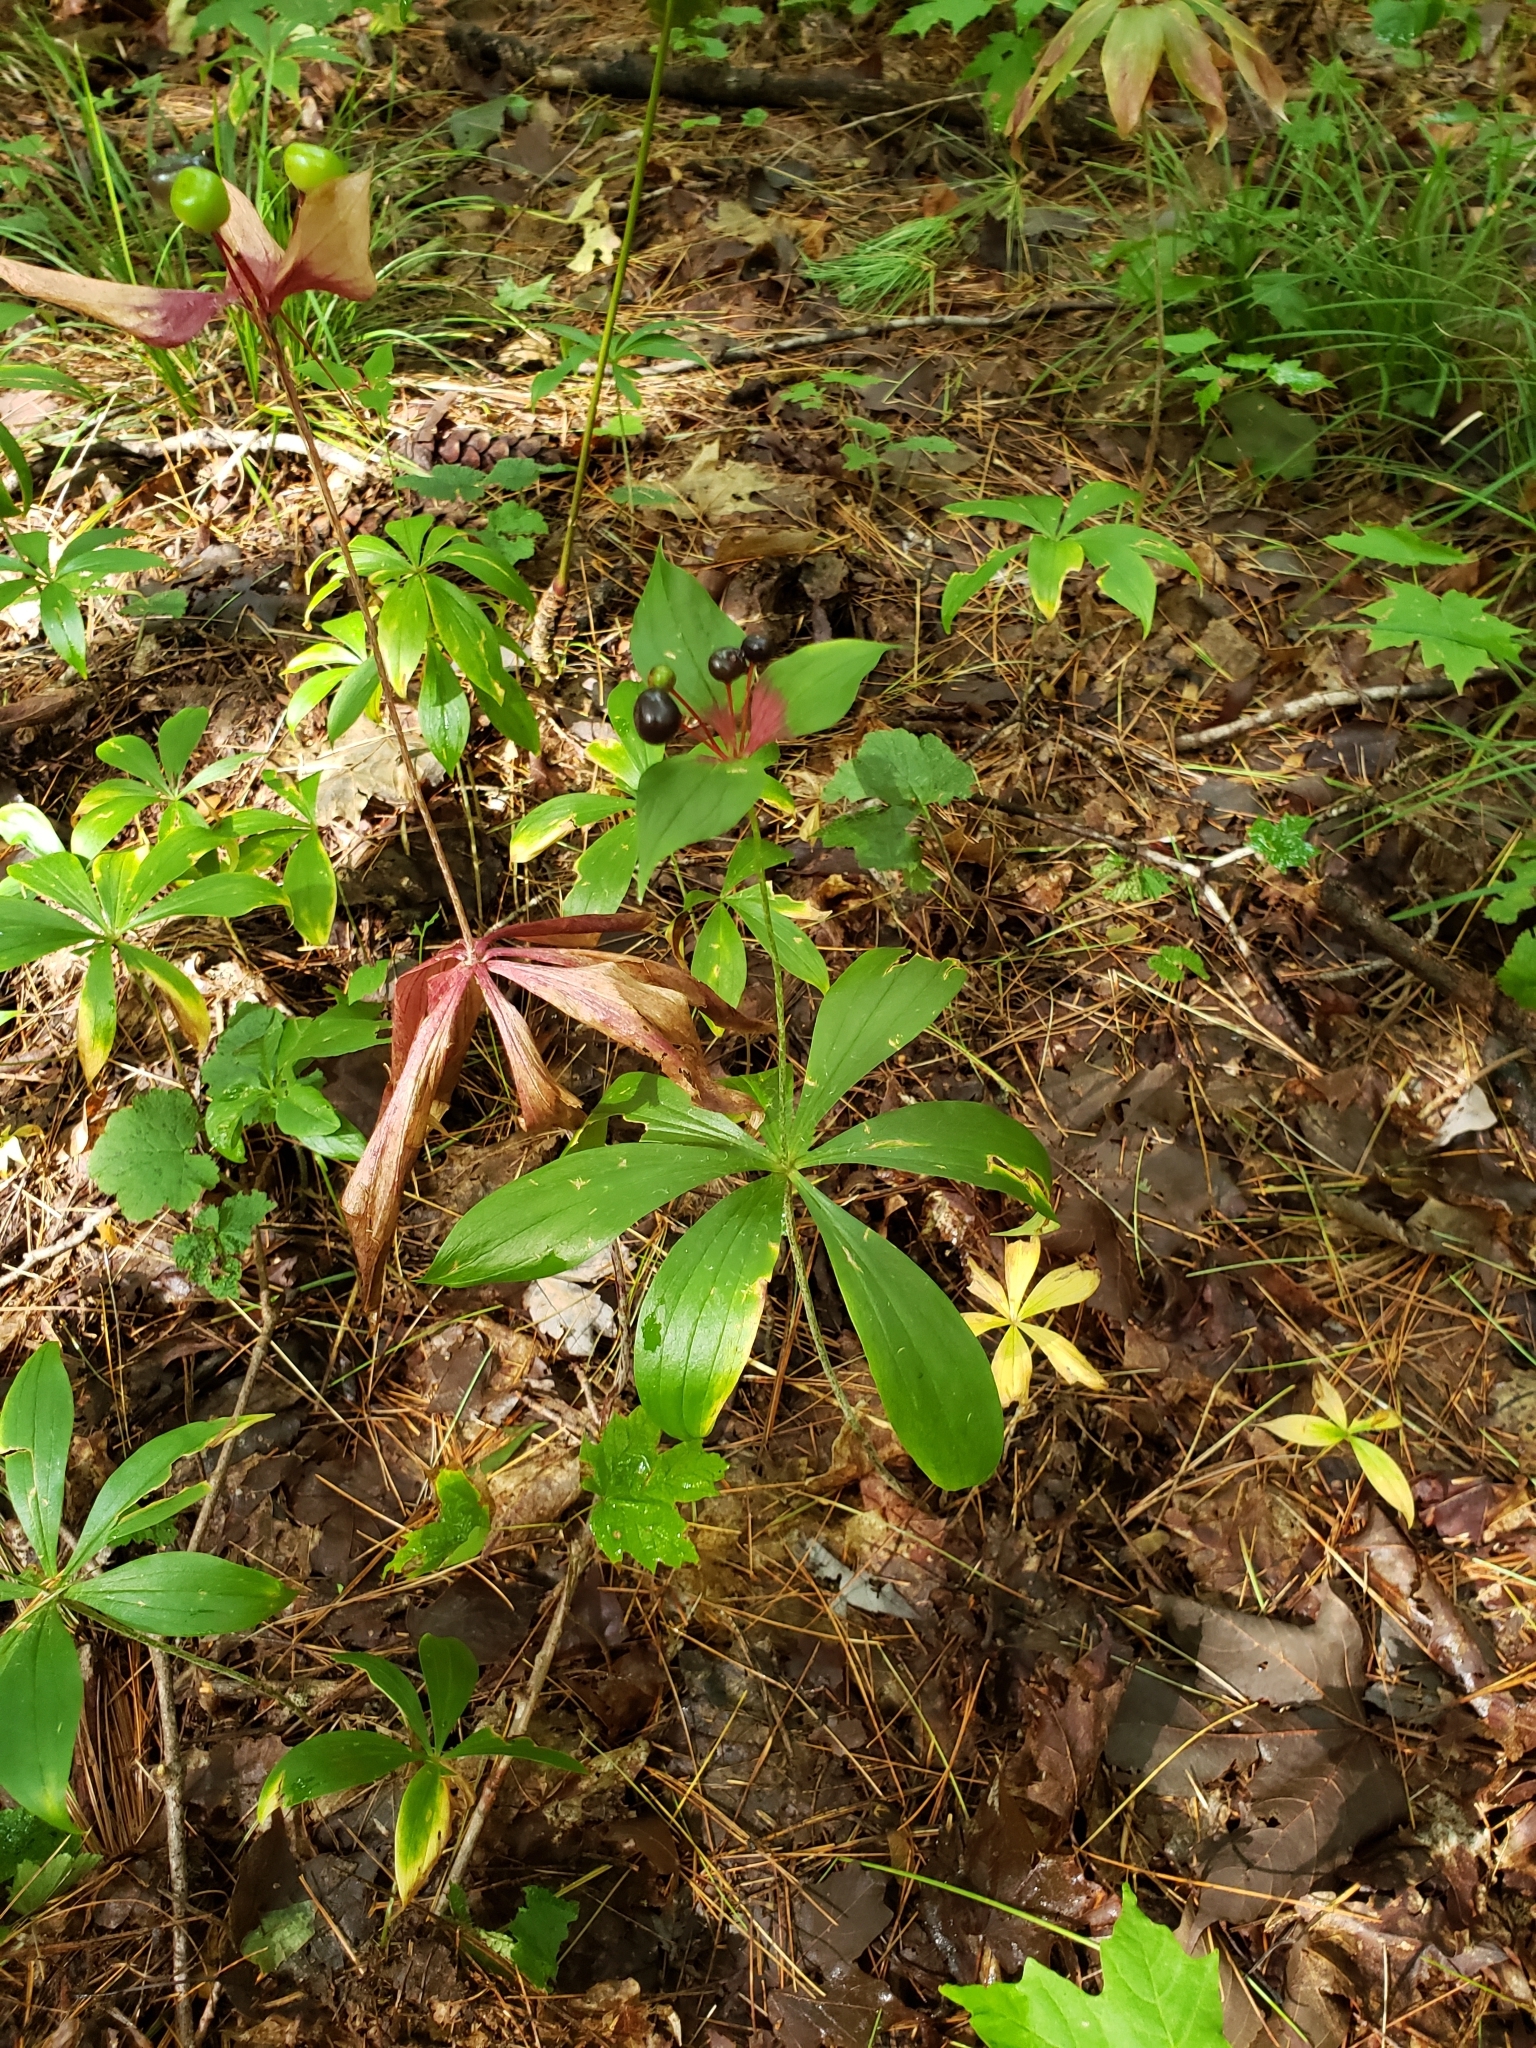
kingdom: Plantae
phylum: Tracheophyta
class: Liliopsida
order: Liliales
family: Liliaceae
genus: Medeola
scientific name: Medeola virginiana
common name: Indian cucumber-root
